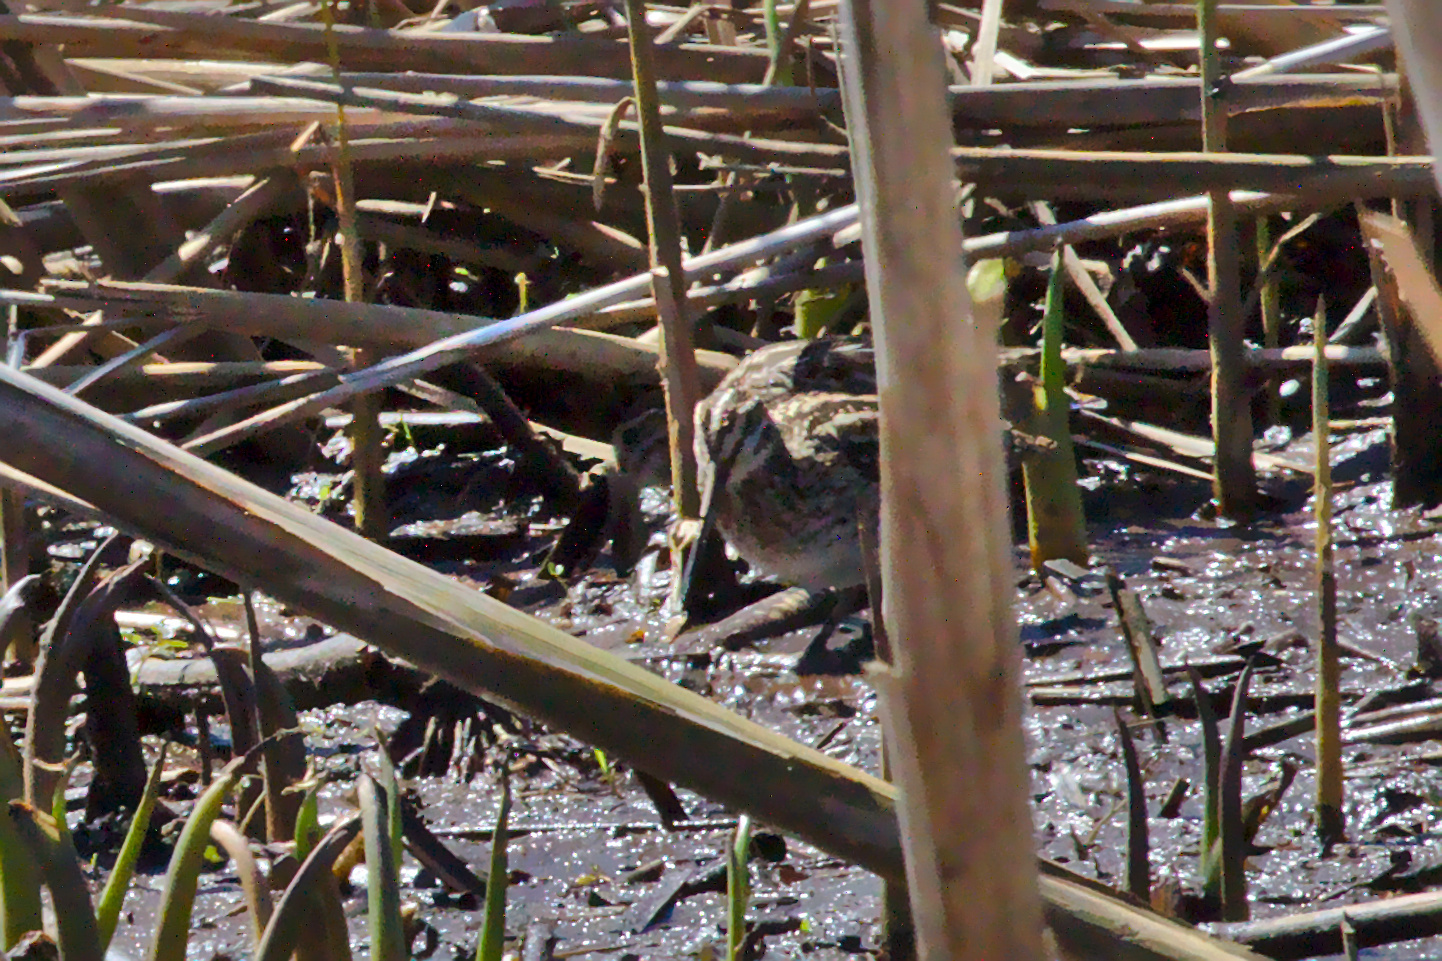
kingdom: Animalia
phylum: Chordata
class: Aves
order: Charadriiformes
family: Scolopacidae
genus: Gallinago
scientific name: Gallinago delicata
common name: Wilson's snipe
